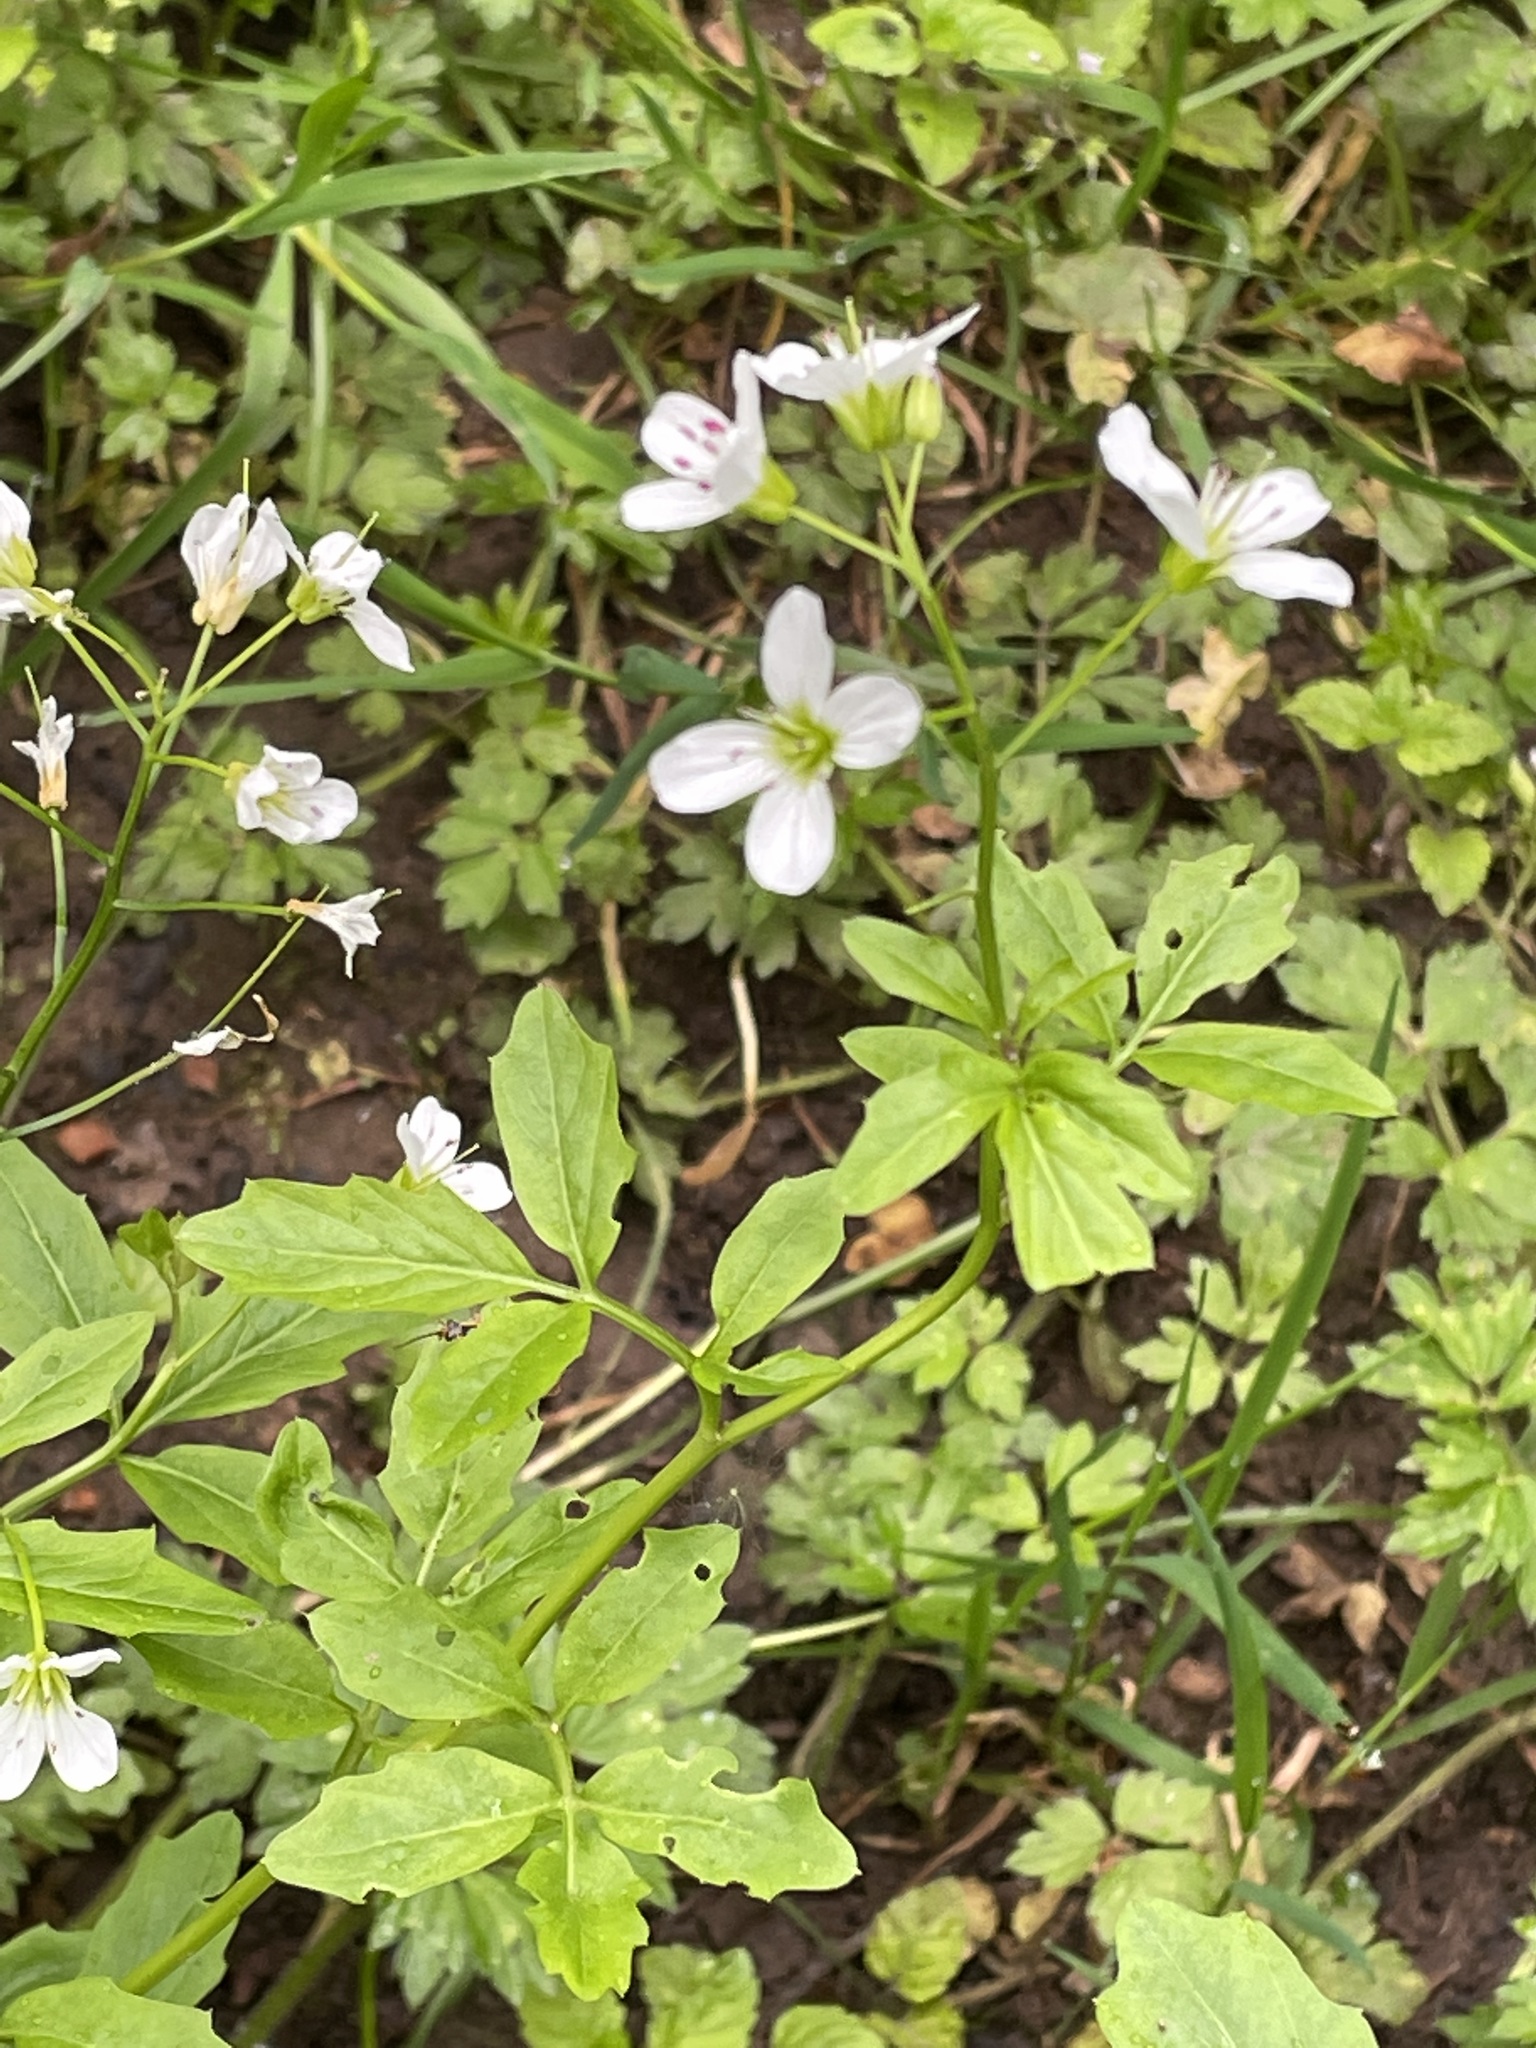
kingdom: Plantae
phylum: Tracheophyta
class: Magnoliopsida
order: Brassicales
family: Brassicaceae
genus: Cardamine
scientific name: Cardamine amara
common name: Large bitter-cress
